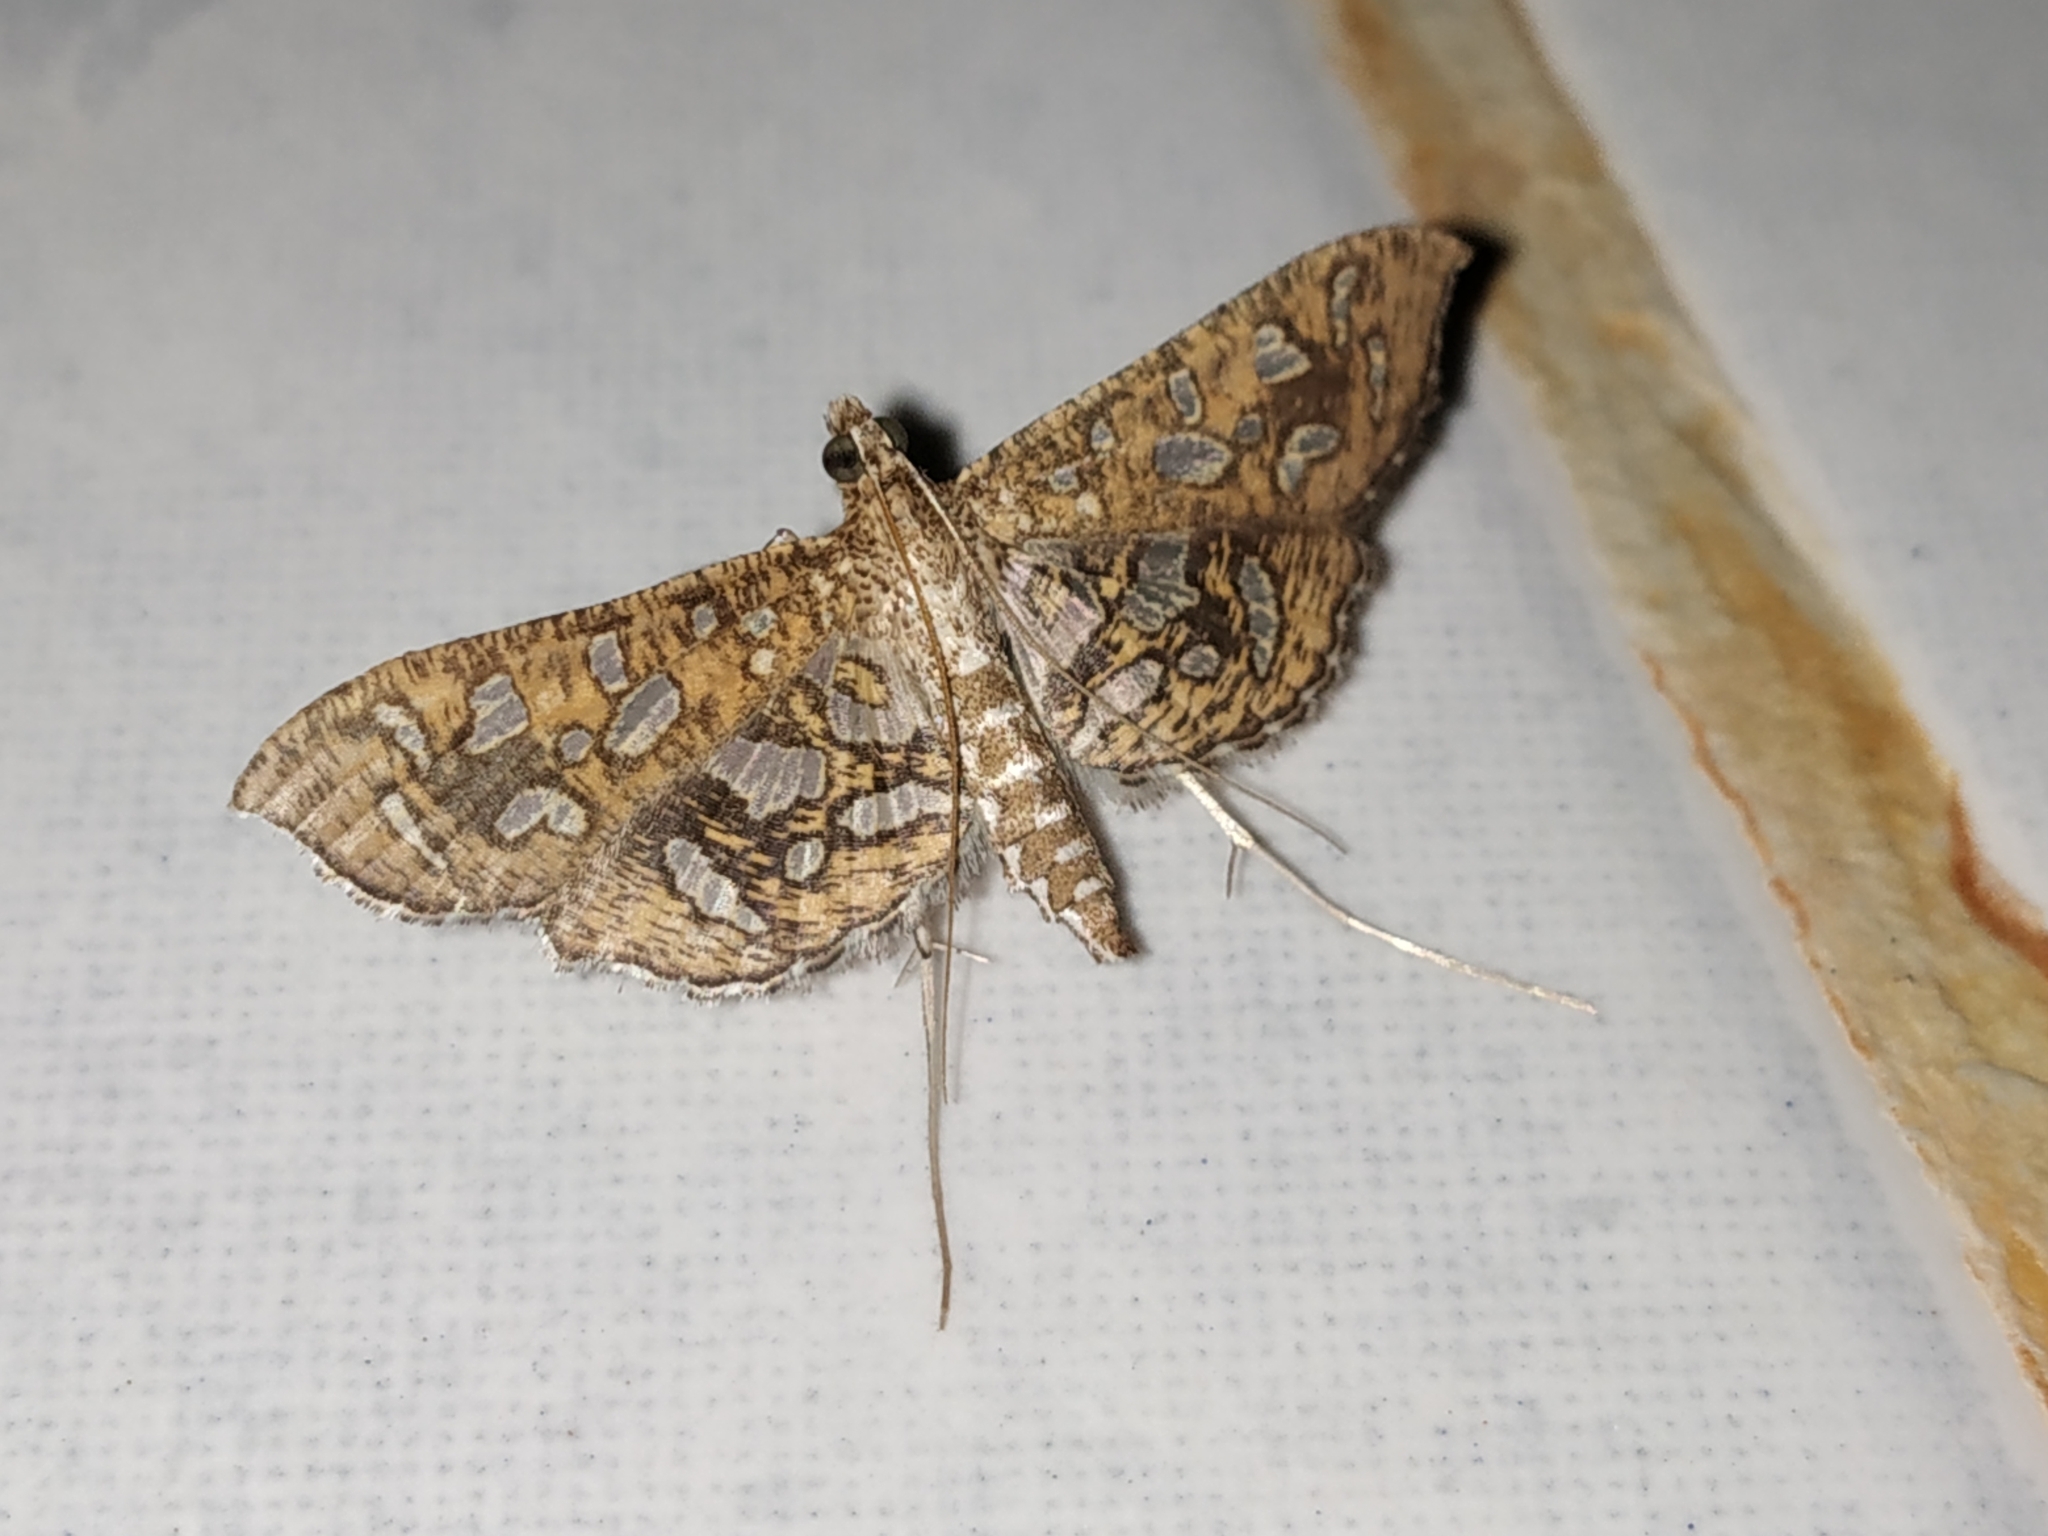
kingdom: Animalia
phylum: Arthropoda
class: Insecta
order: Lepidoptera
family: Crambidae
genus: Nausinoe
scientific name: Nausinoe geometralis
